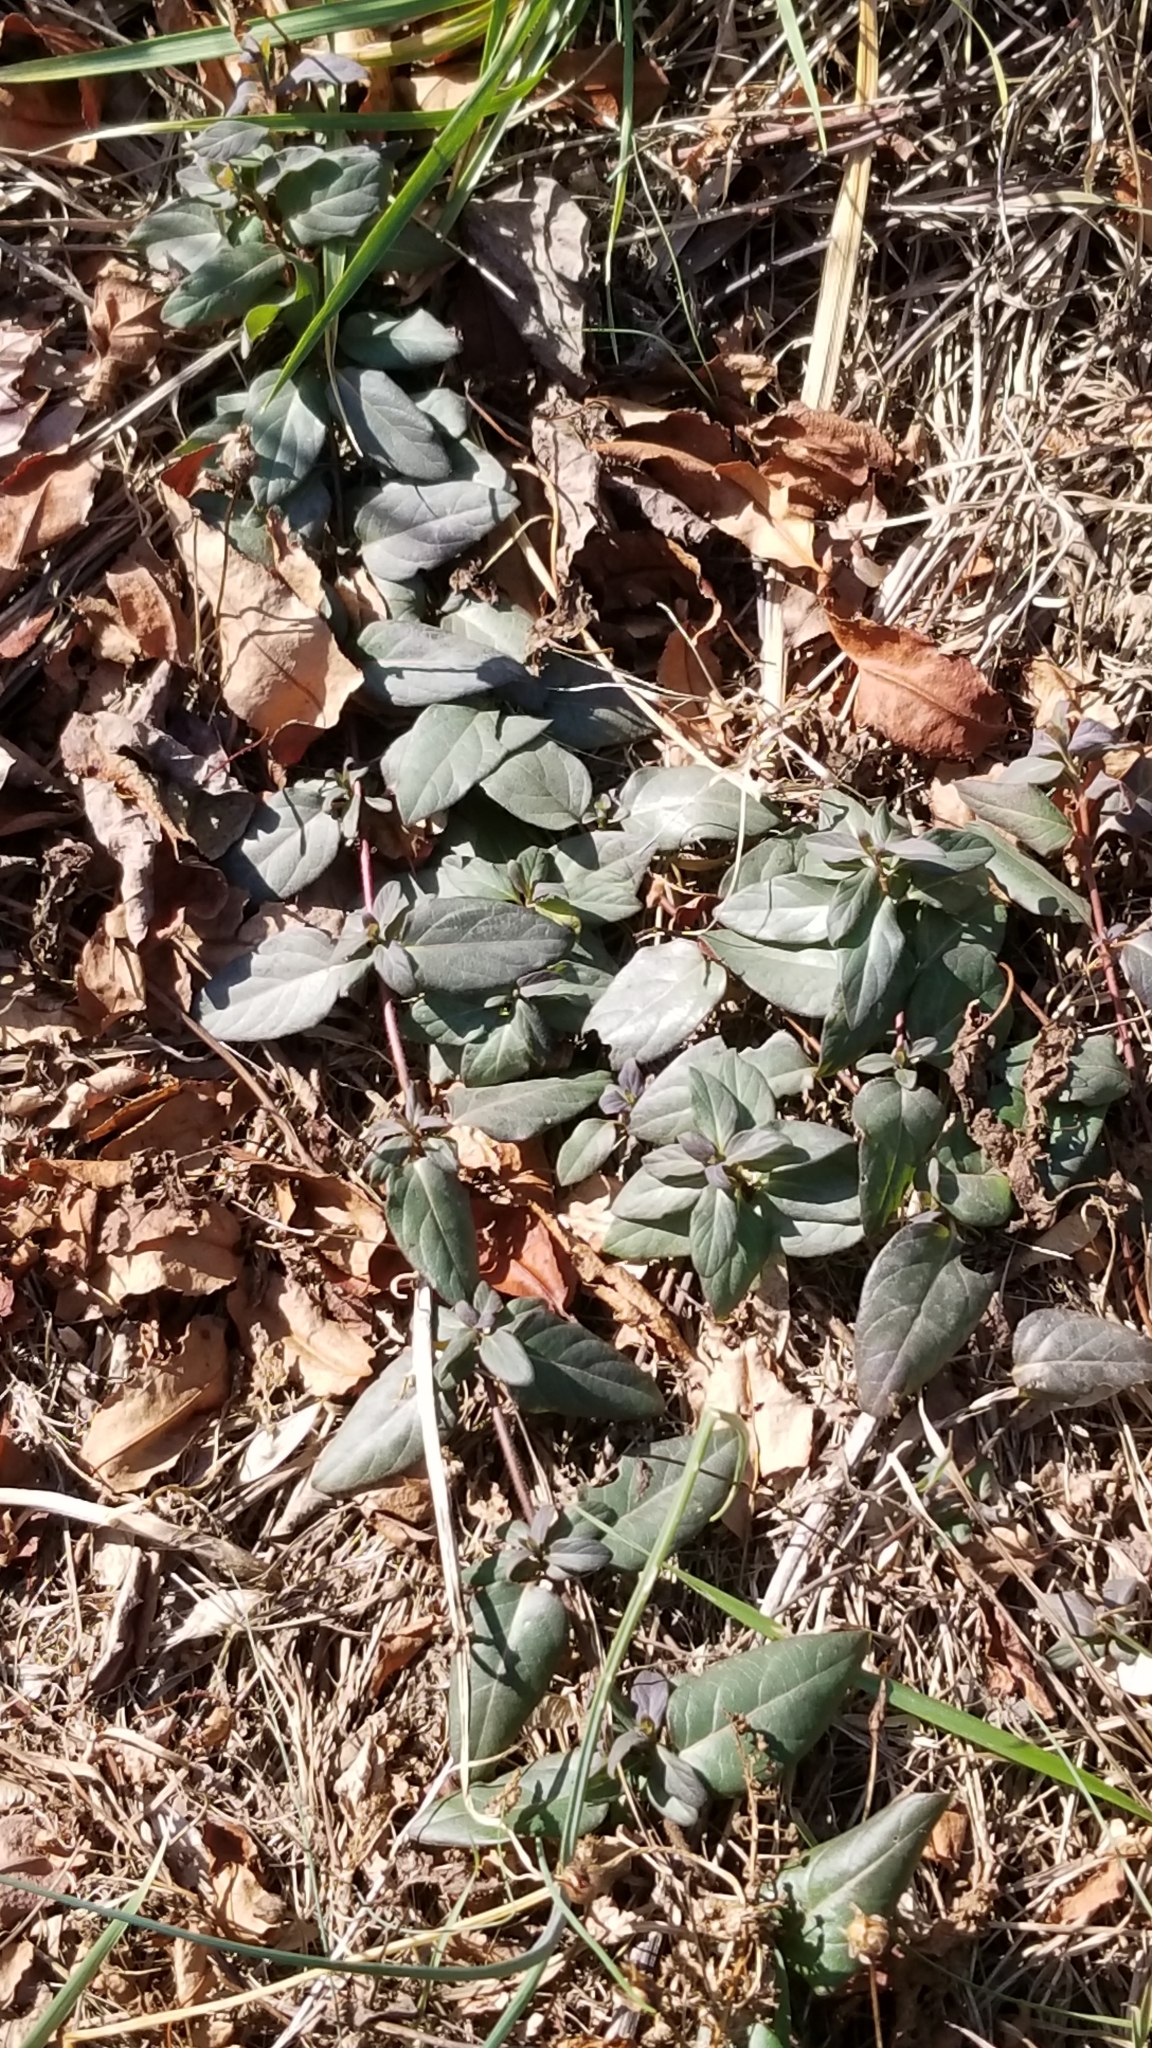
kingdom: Plantae
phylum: Tracheophyta
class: Magnoliopsida
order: Dipsacales
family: Caprifoliaceae
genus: Lonicera
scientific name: Lonicera japonica
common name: Japanese honeysuckle
